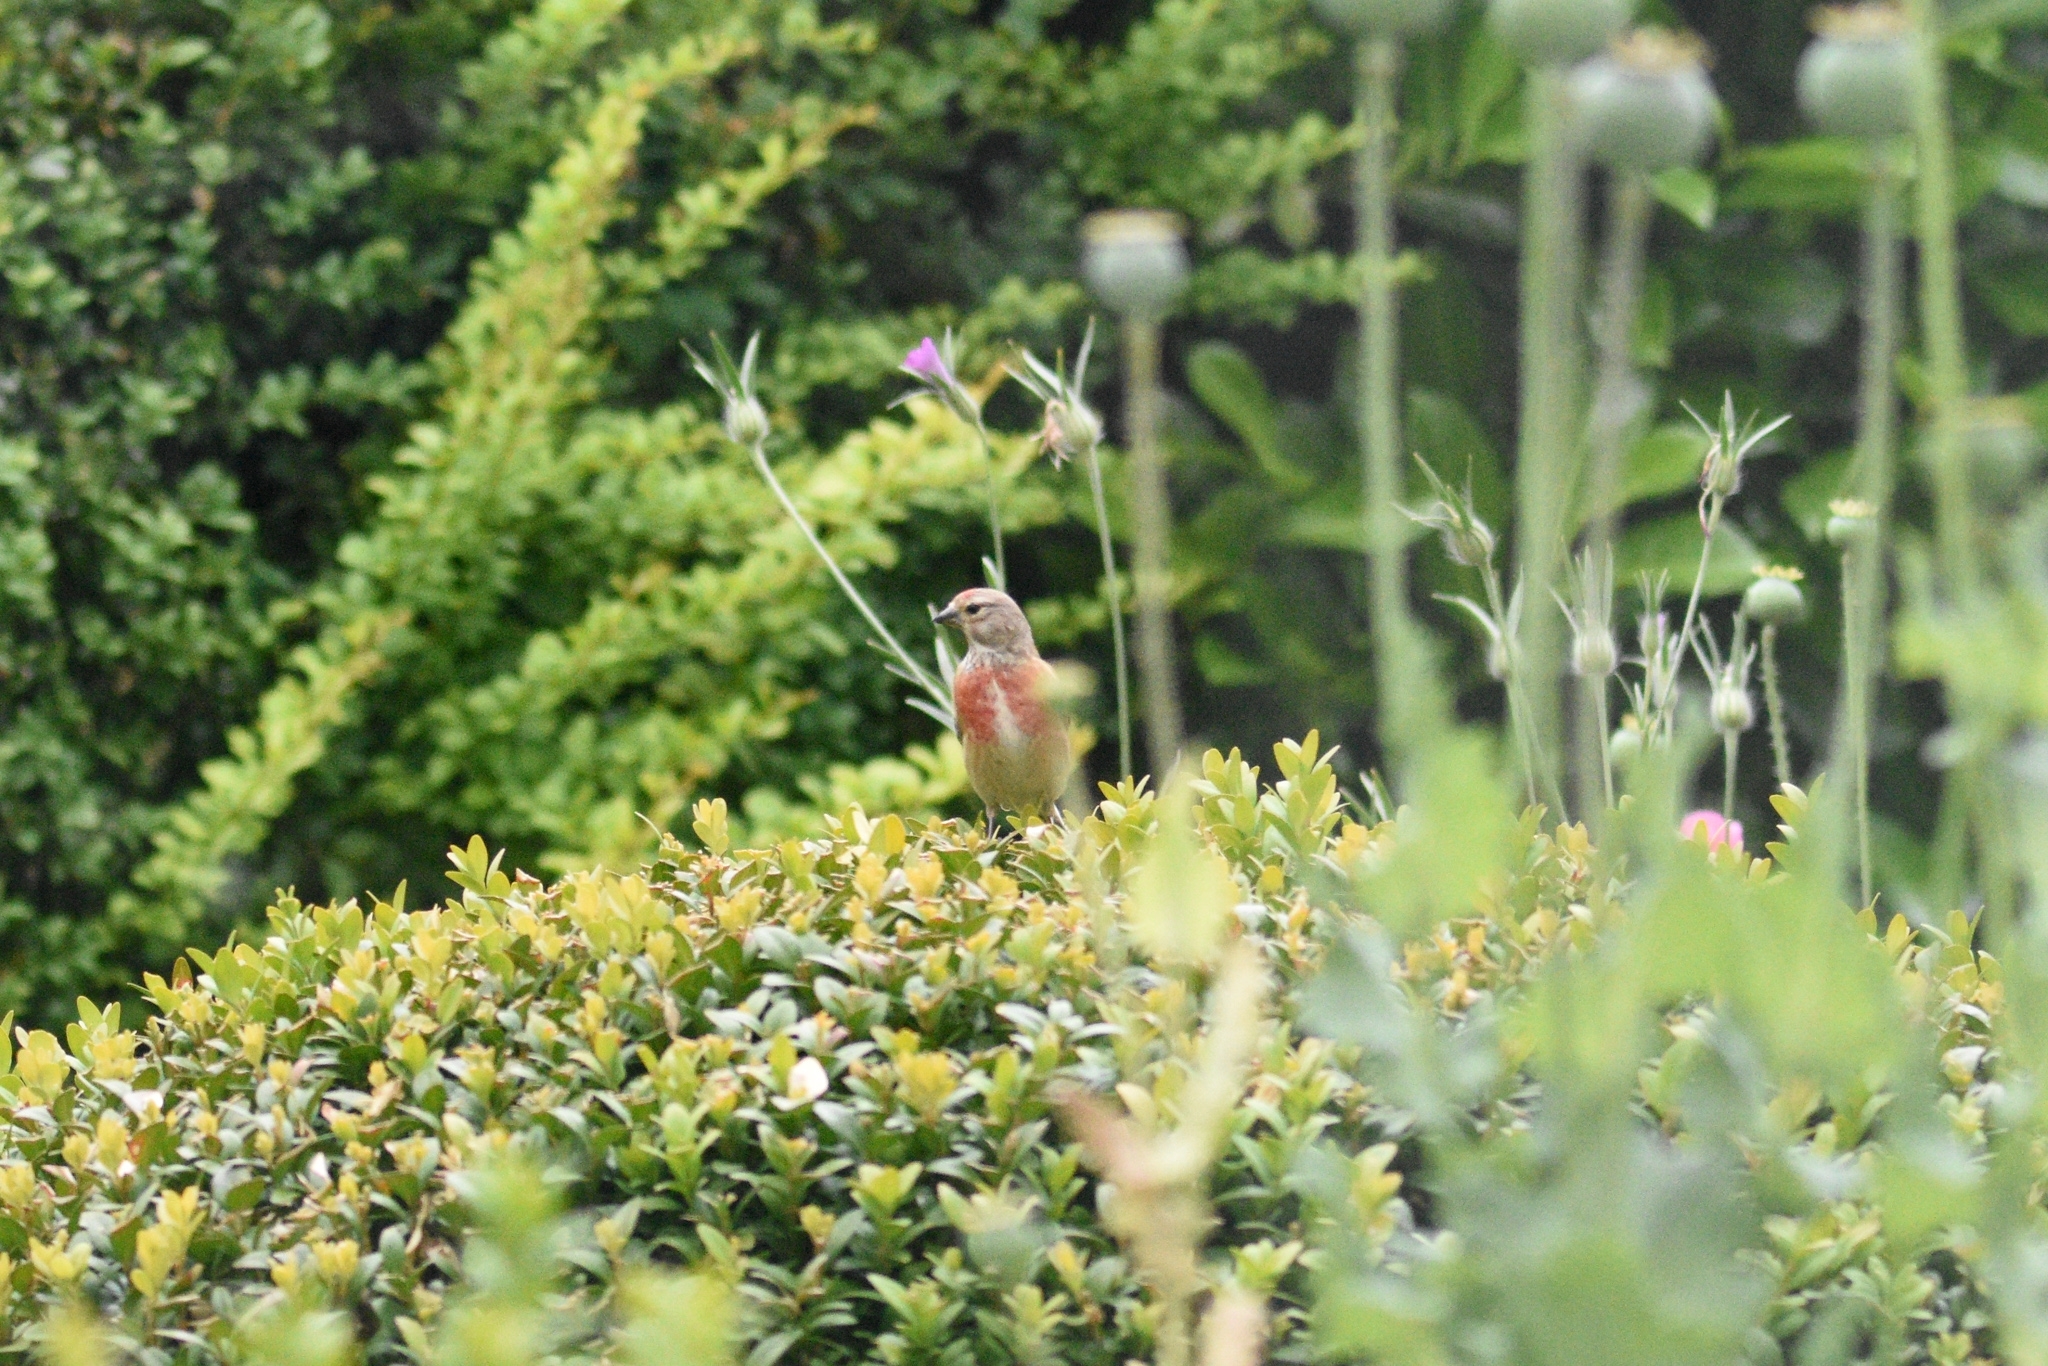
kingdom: Animalia
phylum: Chordata
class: Aves
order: Passeriformes
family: Fringillidae
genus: Linaria
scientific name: Linaria cannabina
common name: Common linnet
